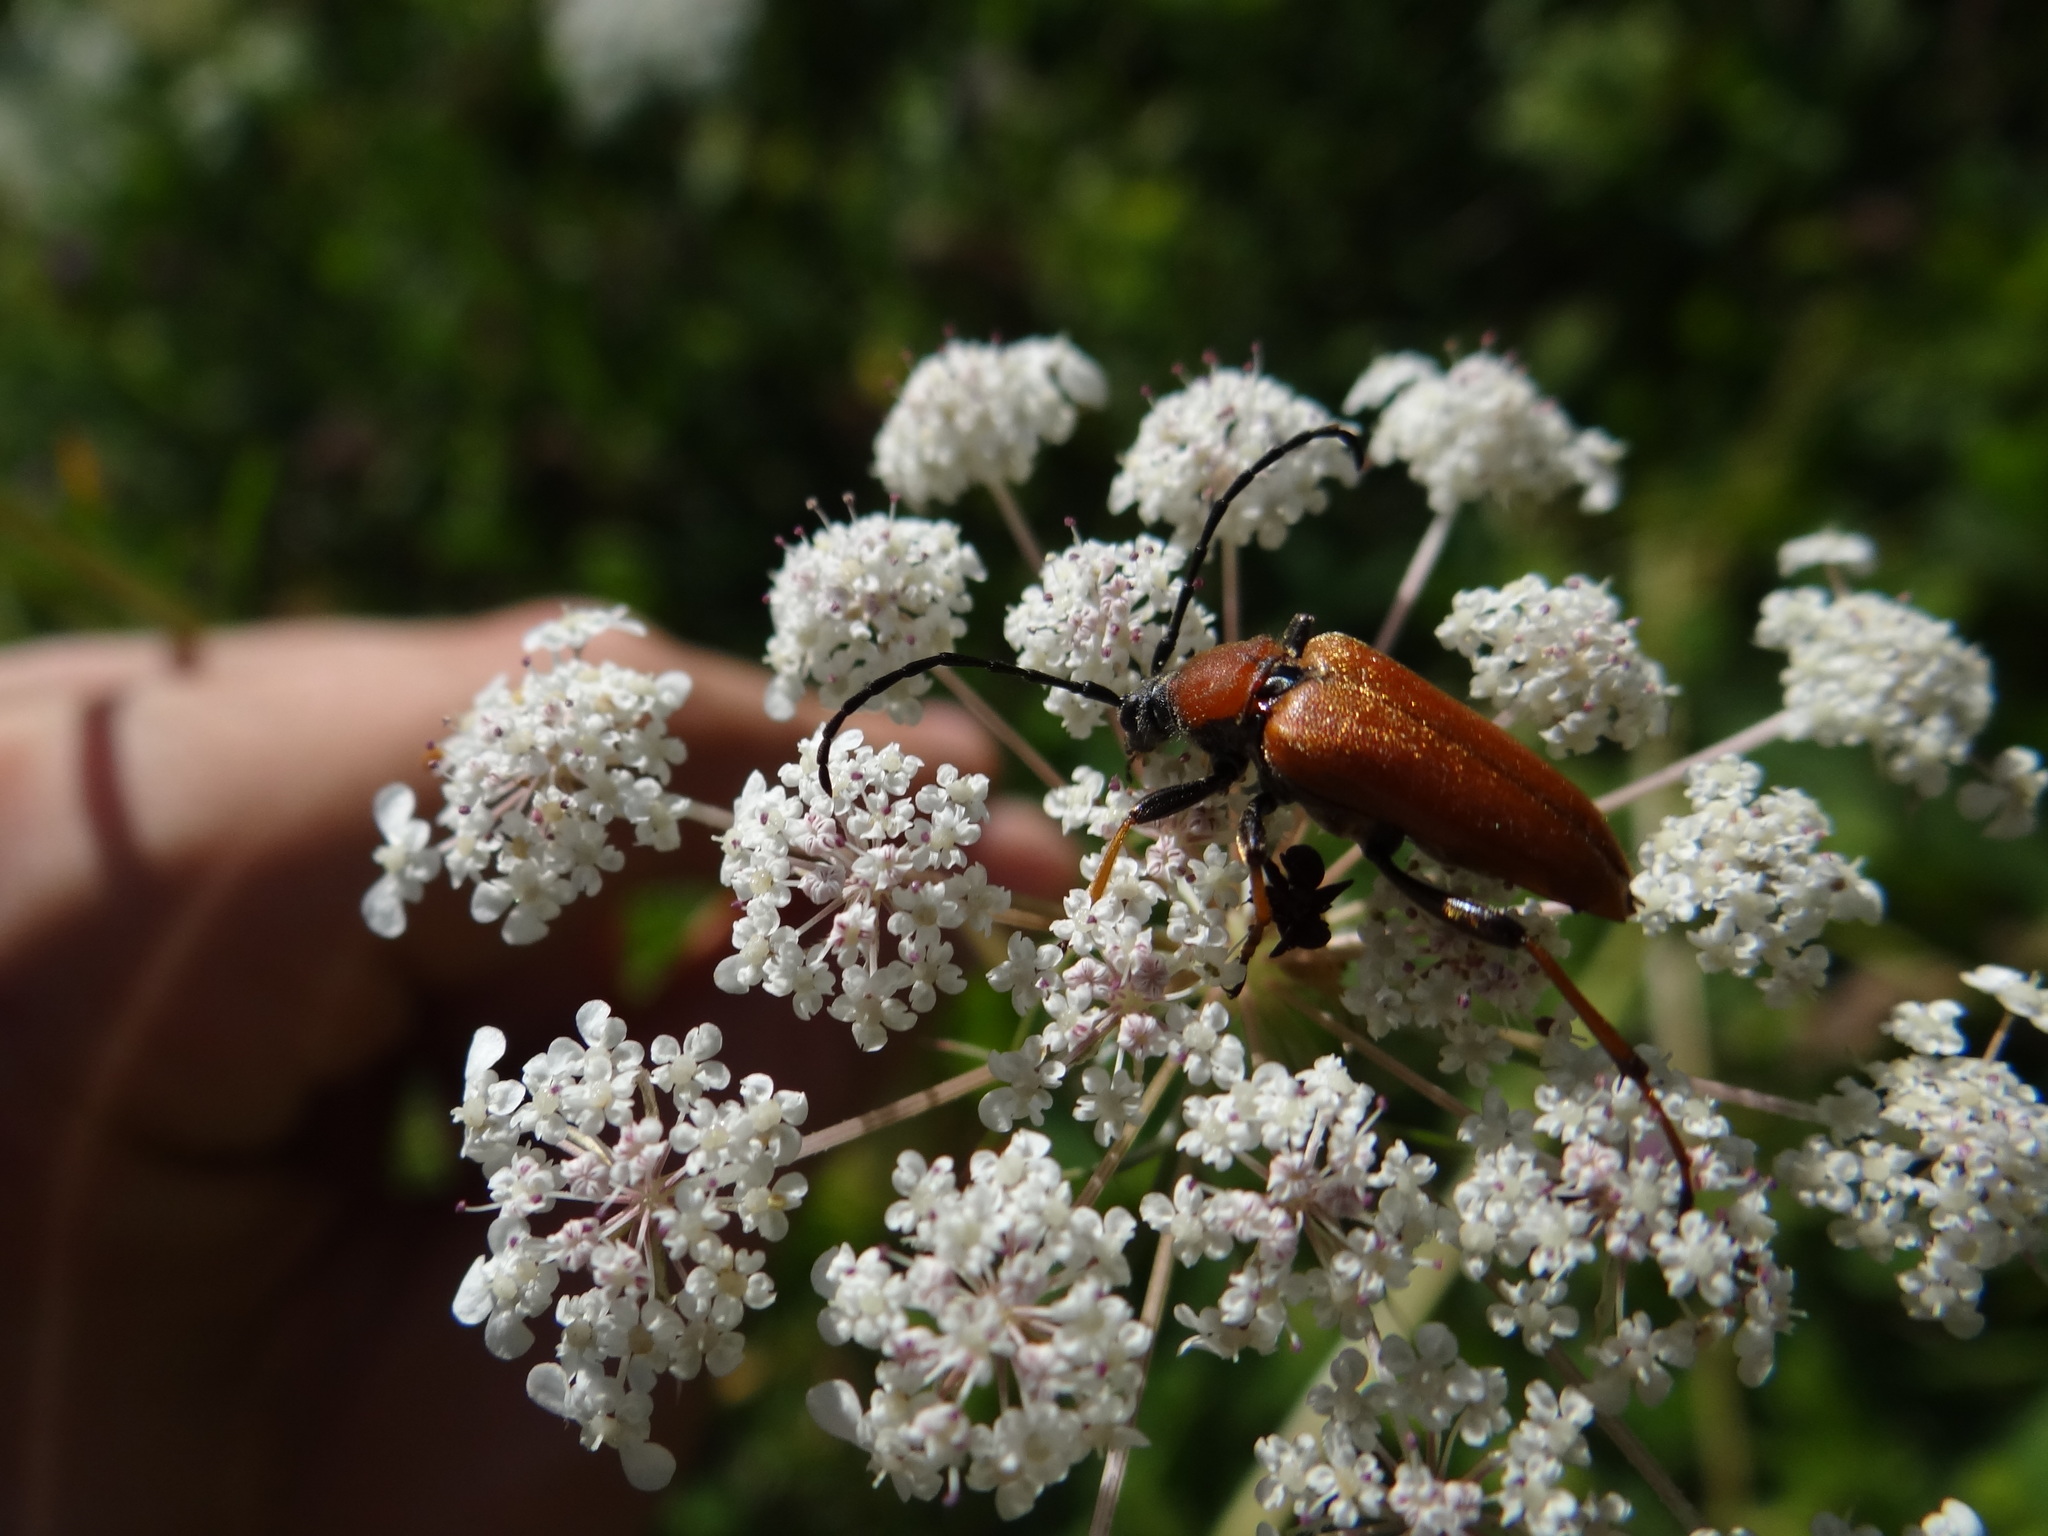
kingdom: Animalia
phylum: Arthropoda
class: Insecta
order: Coleoptera
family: Cerambycidae
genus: Stictoleptura
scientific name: Stictoleptura rubra
